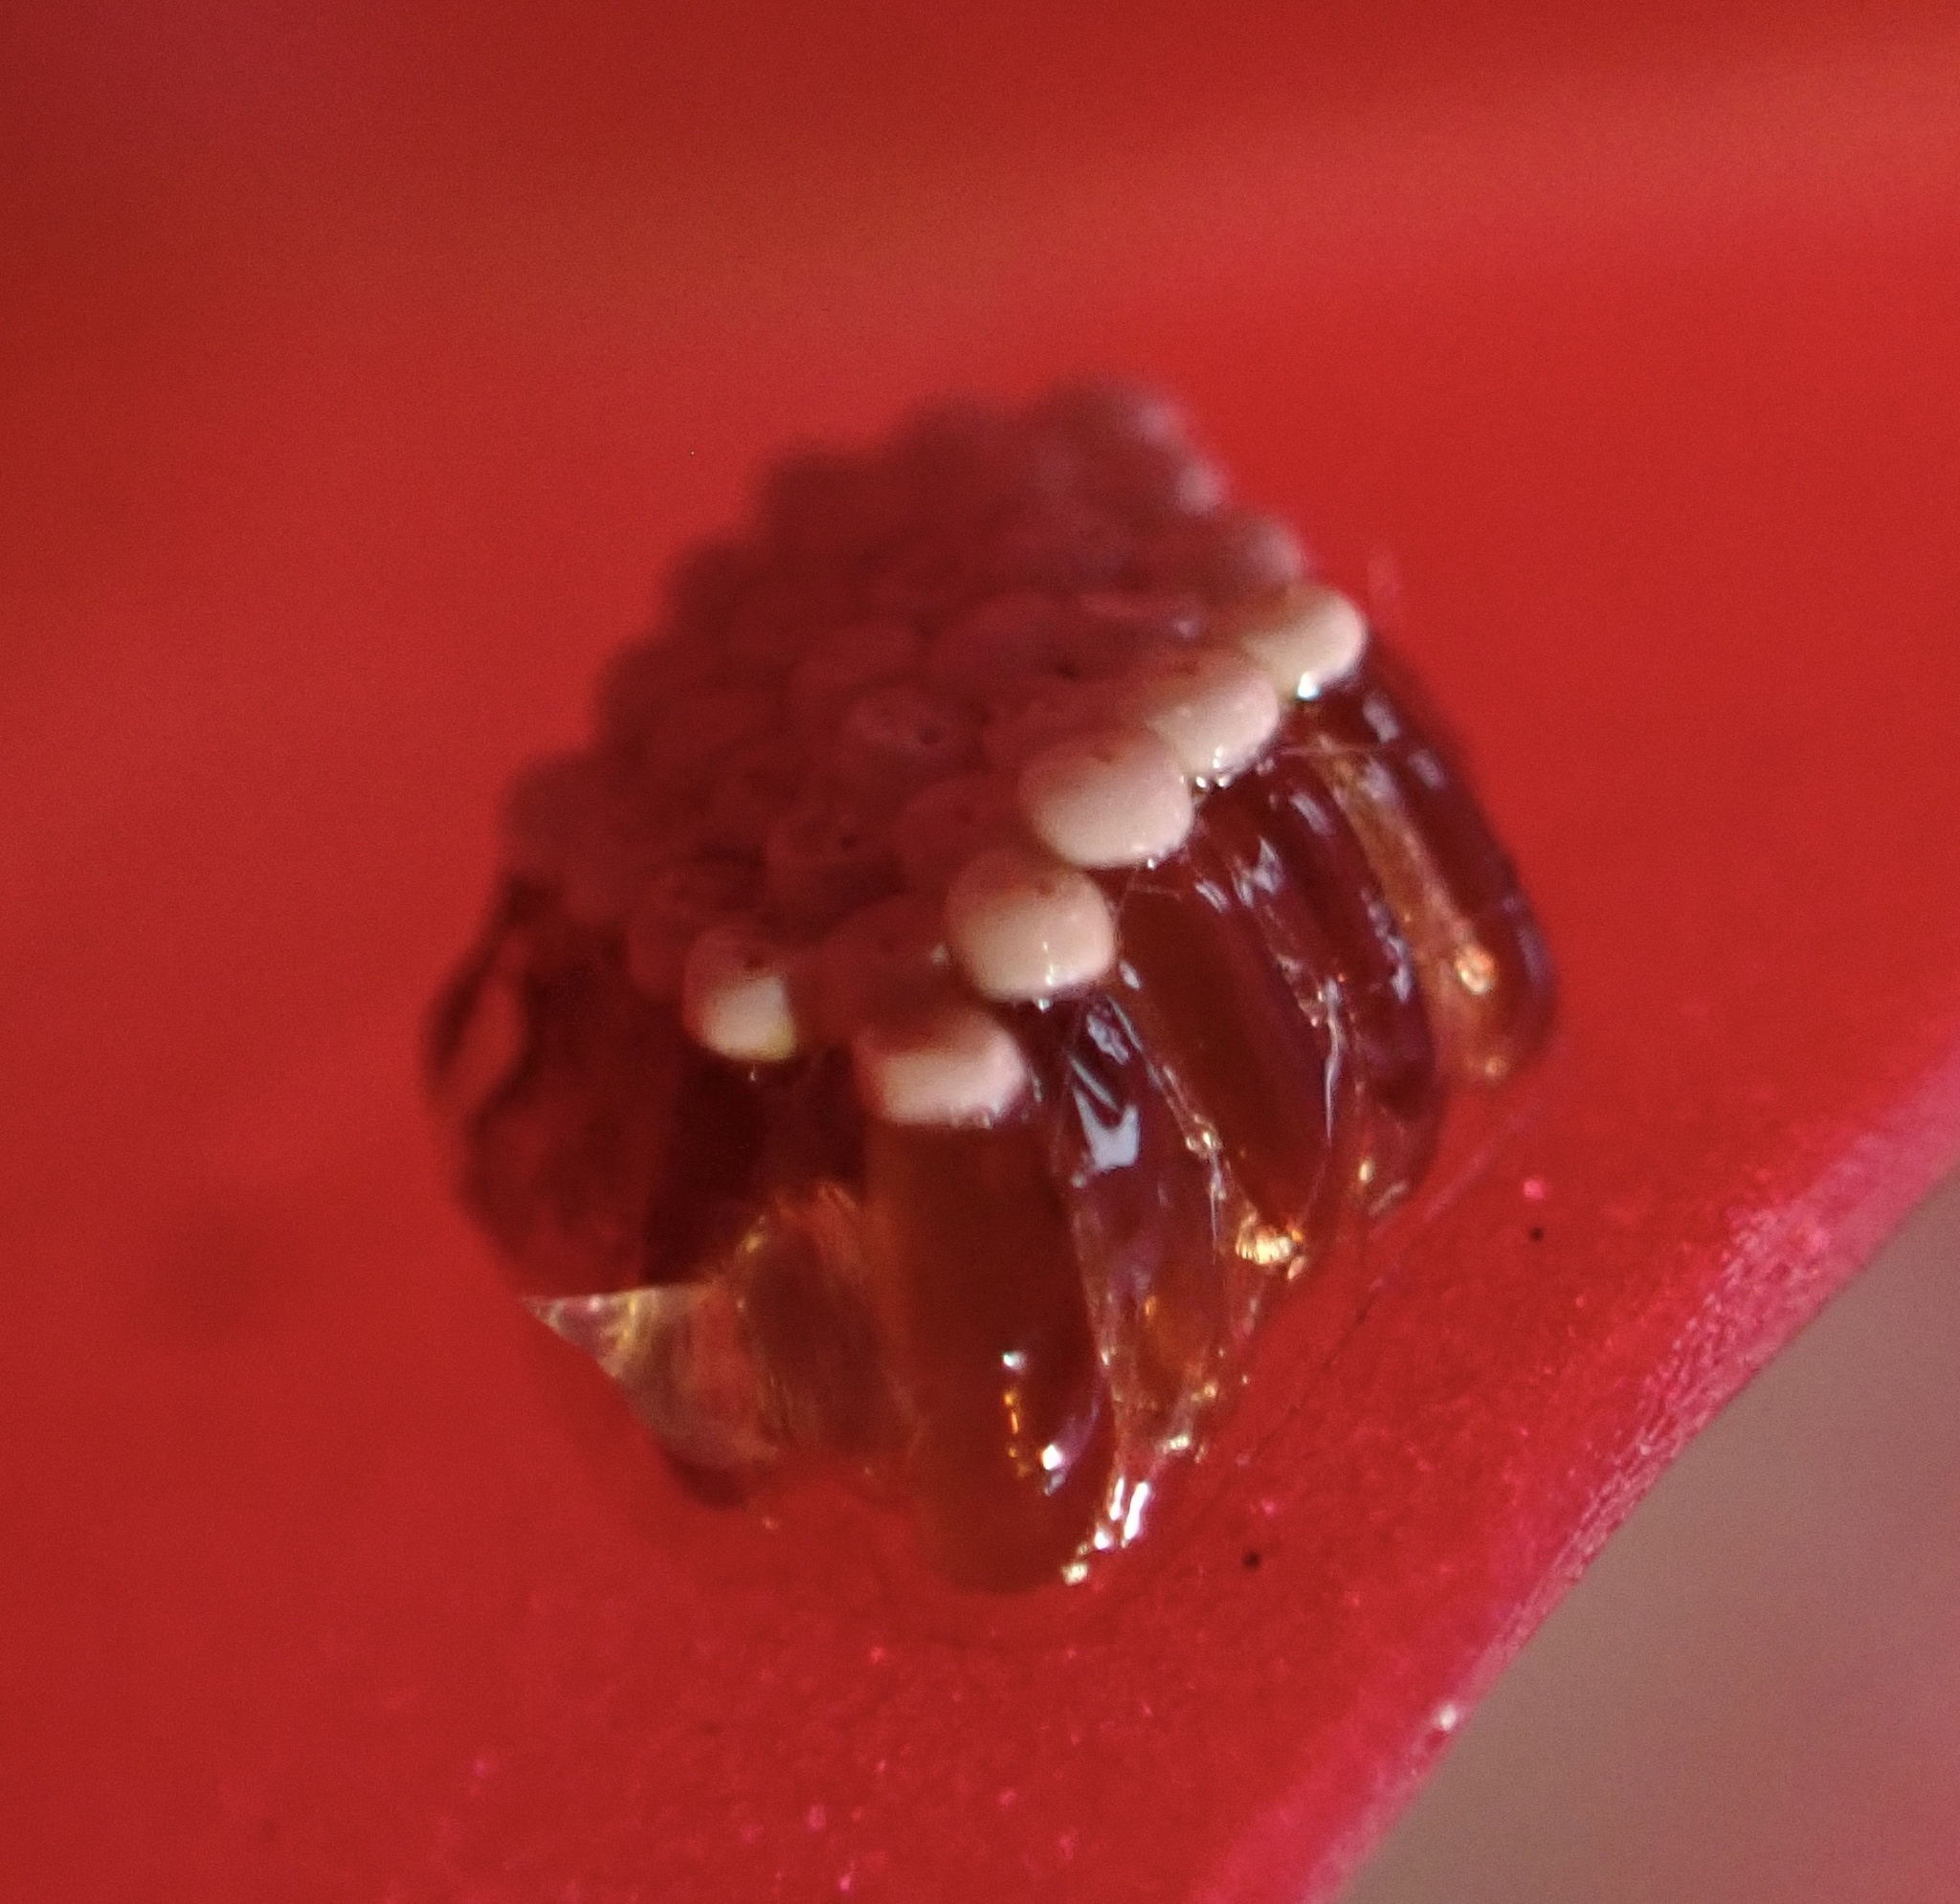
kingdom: Animalia
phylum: Arthropoda
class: Insecta
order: Hemiptera
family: Reduviidae
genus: Zelus
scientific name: Zelus renardii
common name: Assassin bug
